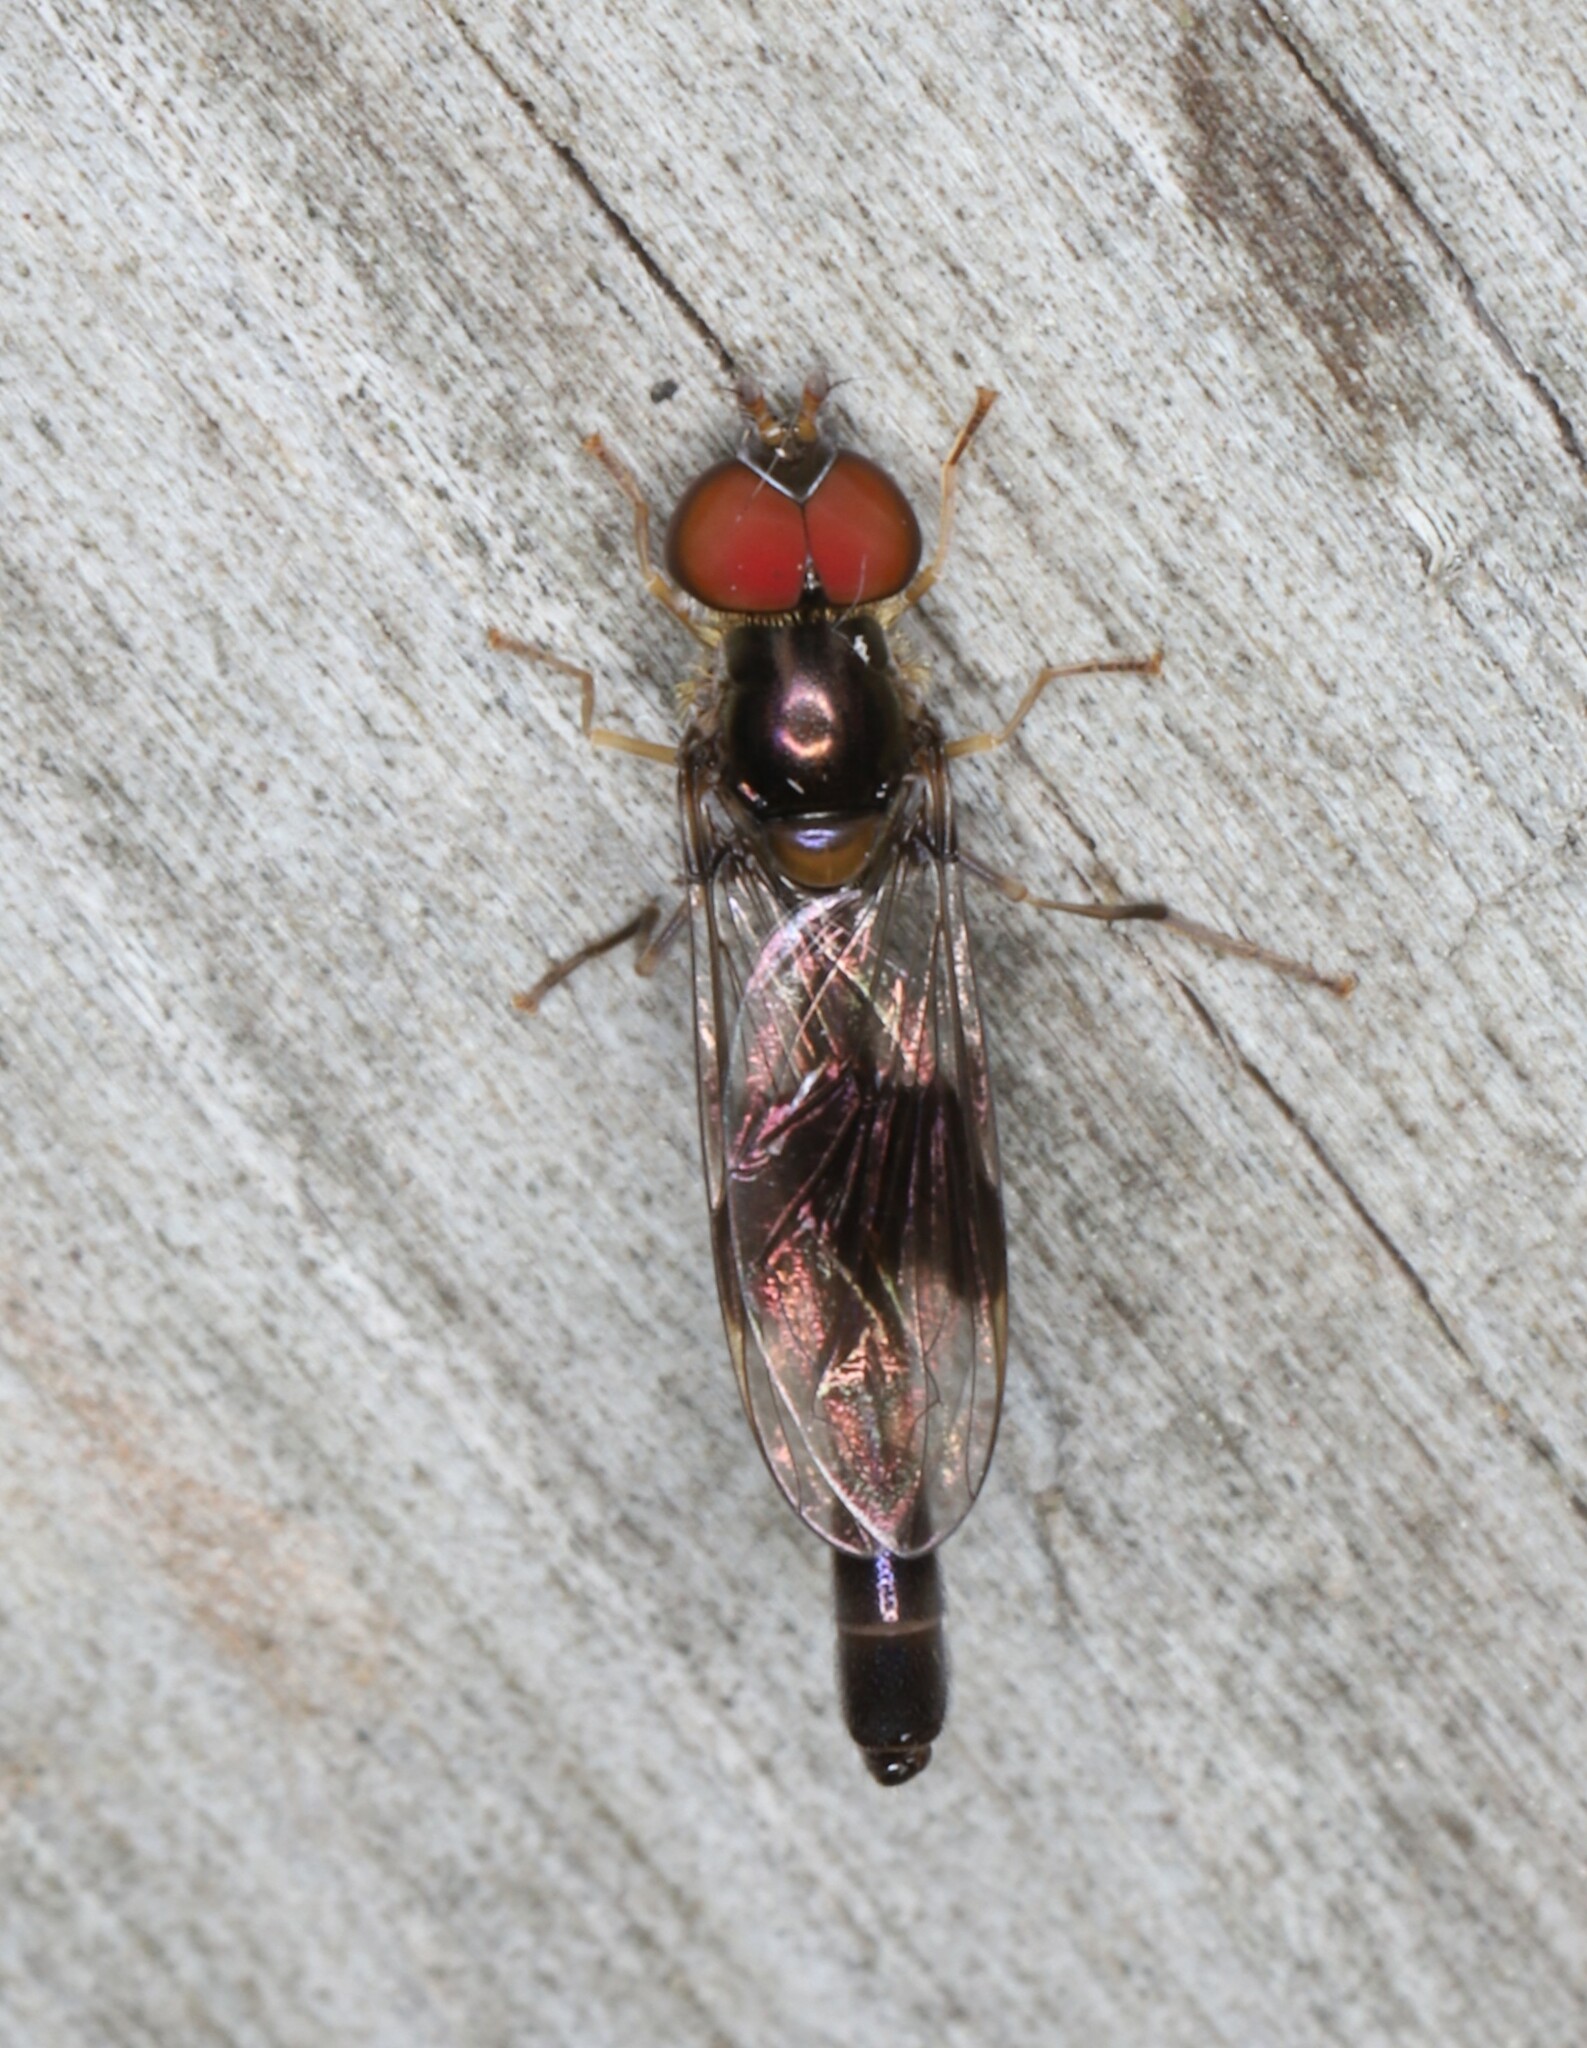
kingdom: Animalia
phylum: Arthropoda
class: Insecta
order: Diptera
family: Syrphidae
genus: Hypocritanus
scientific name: Hypocritanus fascipennis
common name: Eastern band-winged hover fly
